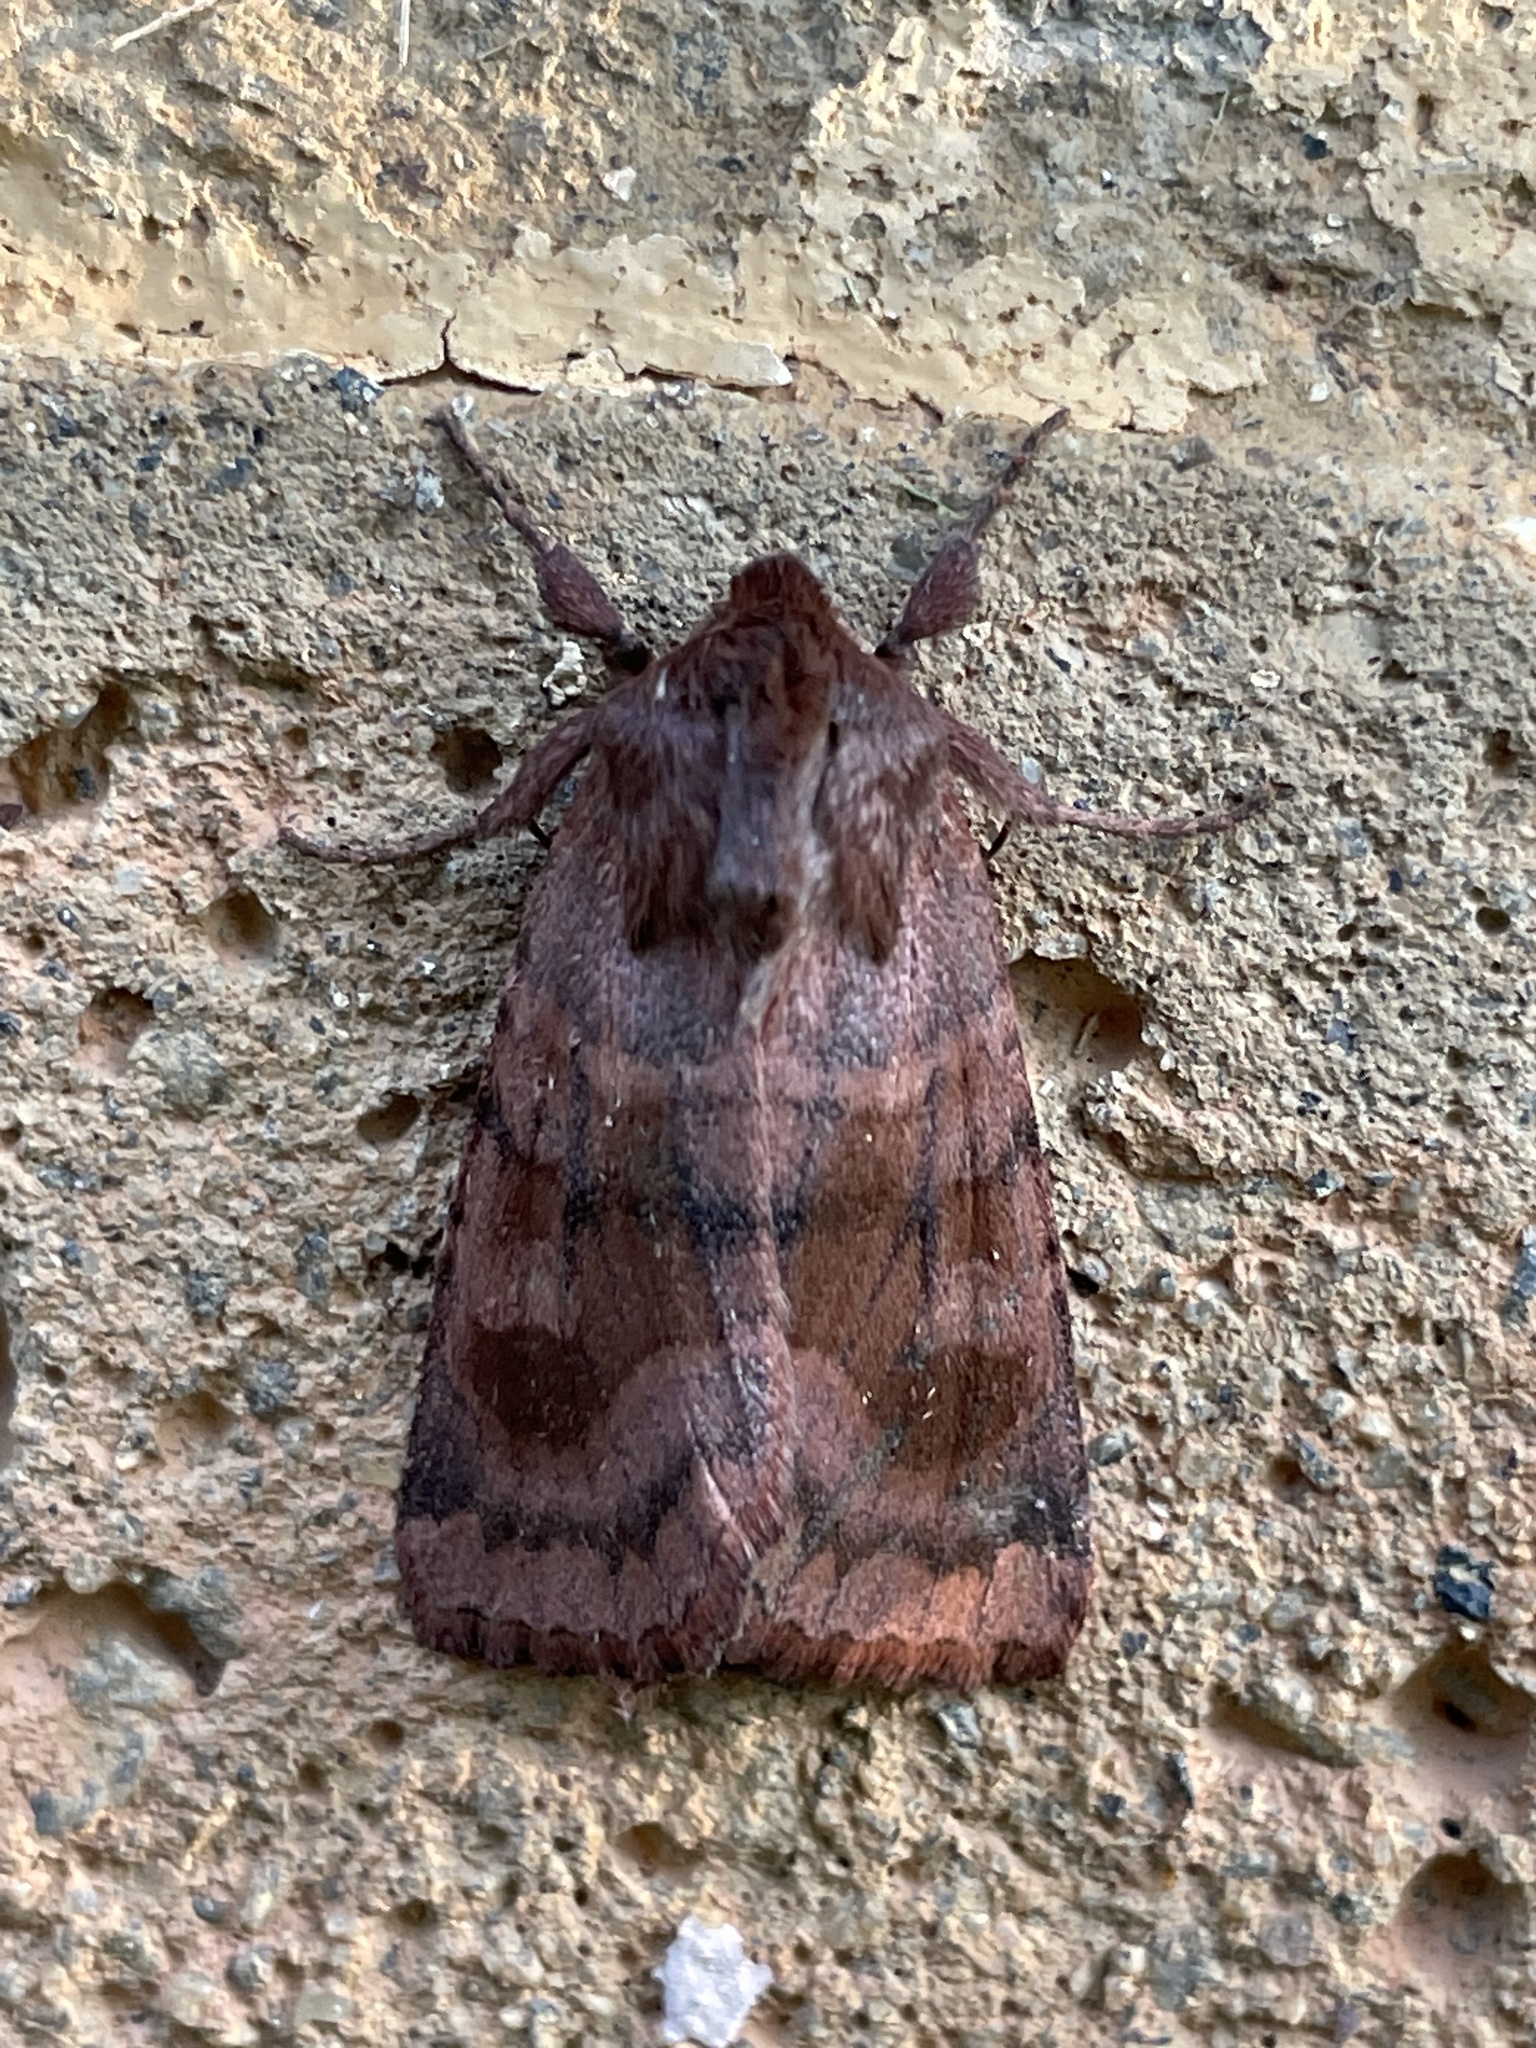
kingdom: Animalia
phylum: Arthropoda
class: Insecta
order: Lepidoptera
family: Noctuidae
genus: Nephelodes
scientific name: Nephelodes minians
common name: Bronzed cutworm
